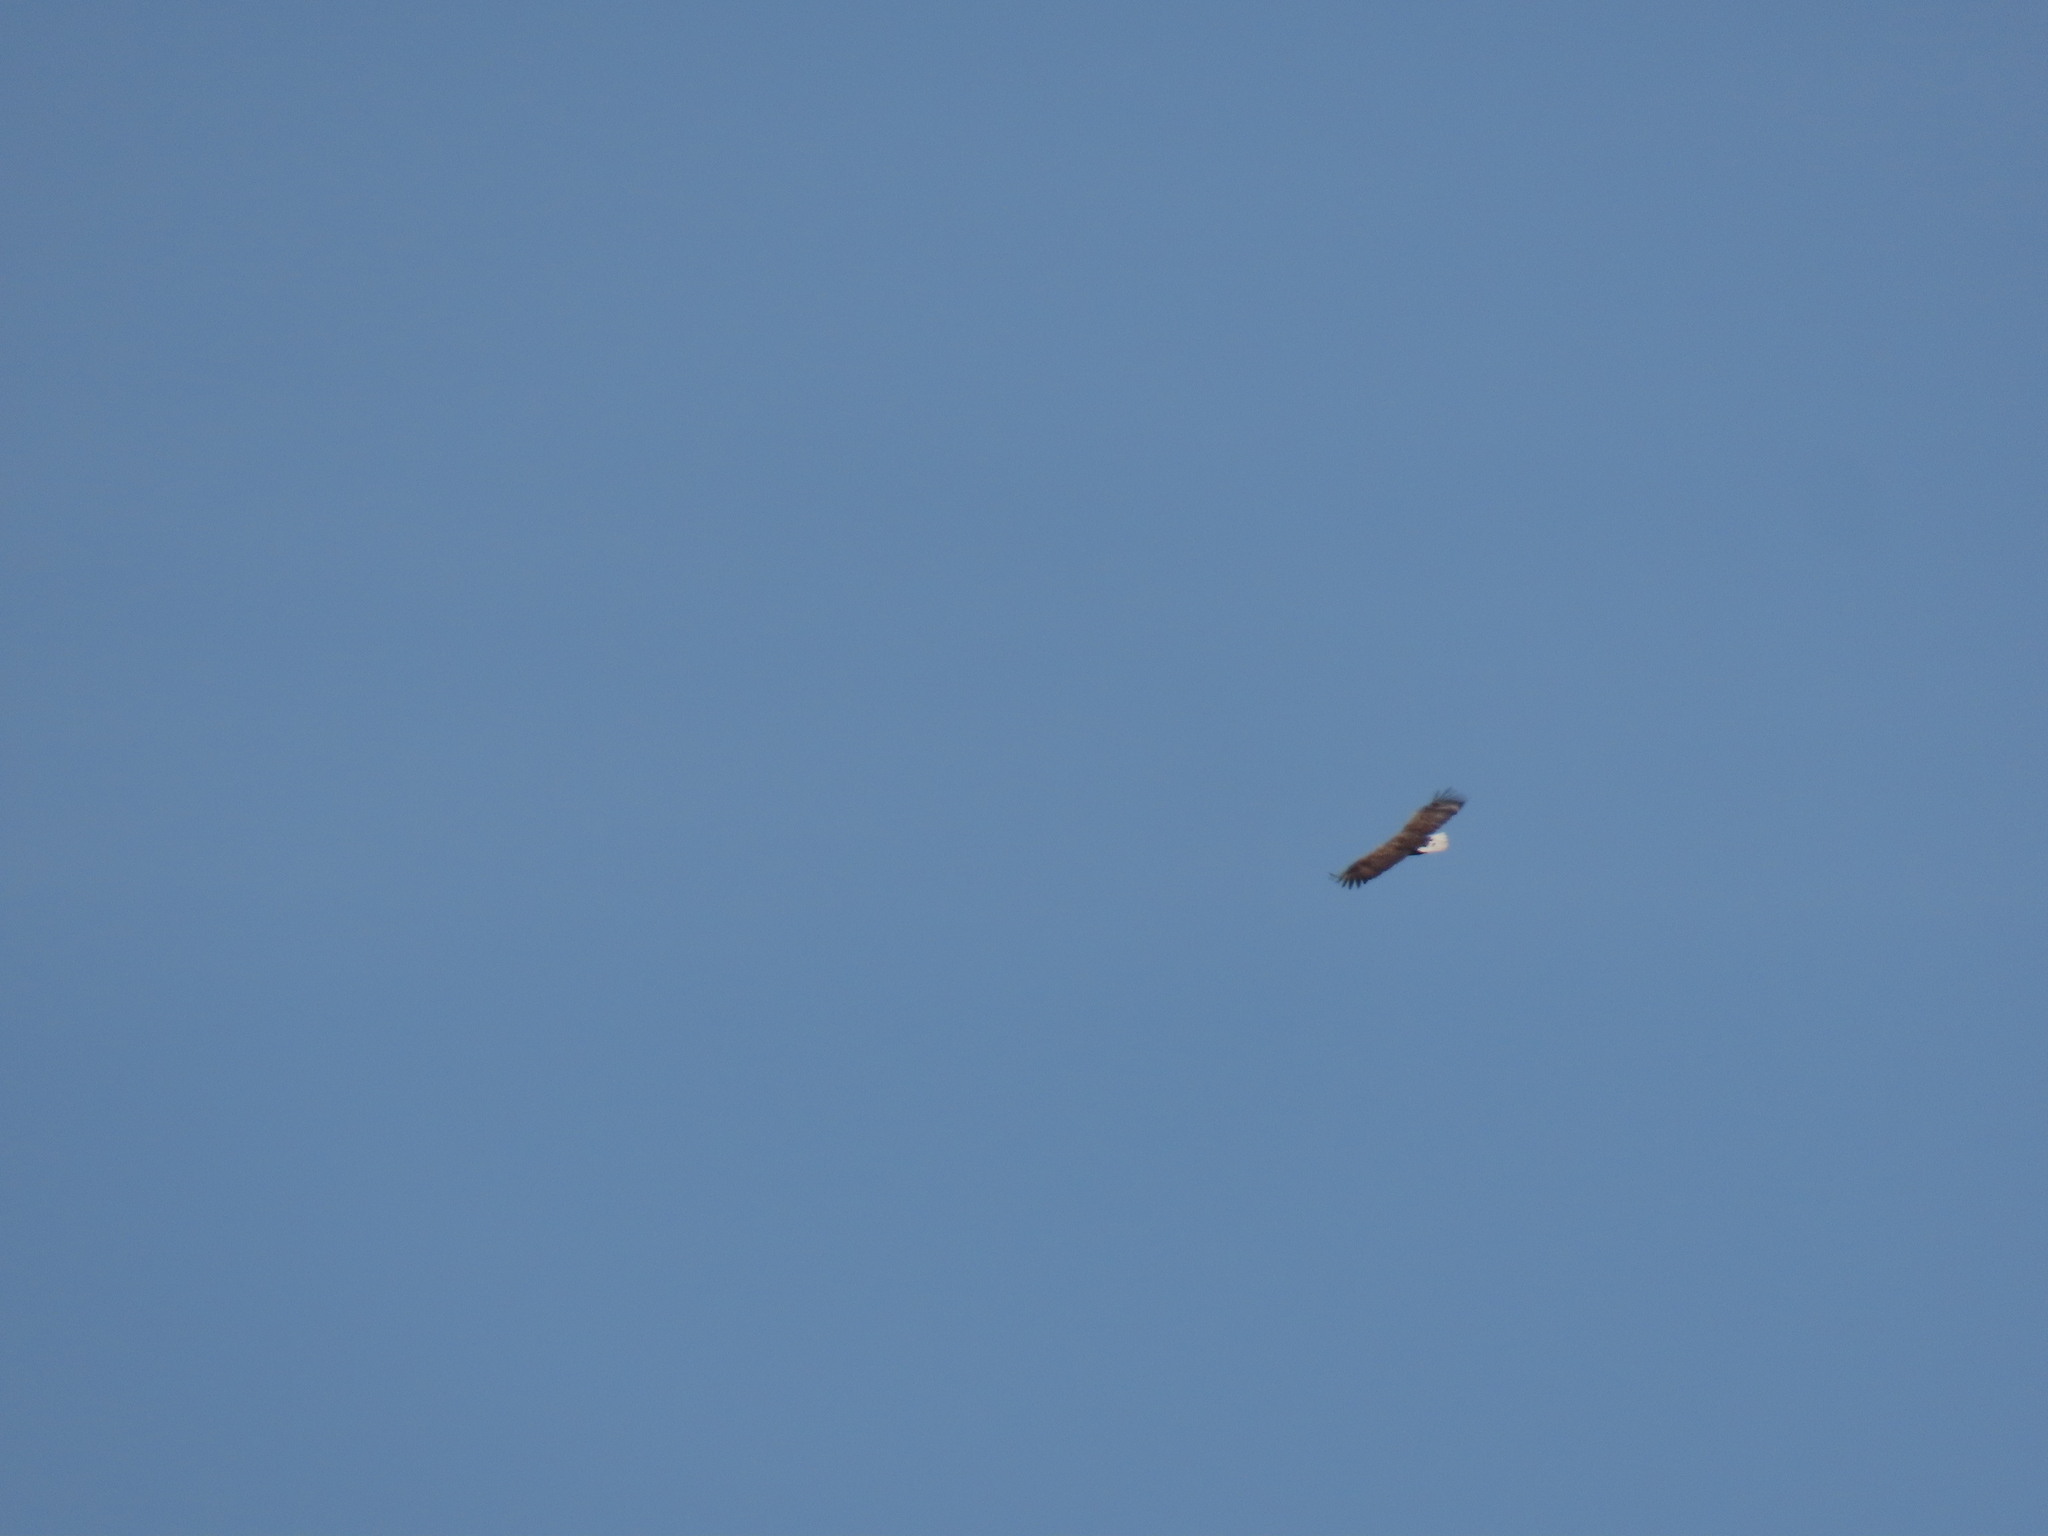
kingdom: Animalia
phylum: Chordata
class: Aves
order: Accipitriformes
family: Accipitridae
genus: Haliaeetus
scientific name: Haliaeetus albicilla
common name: White-tailed eagle
